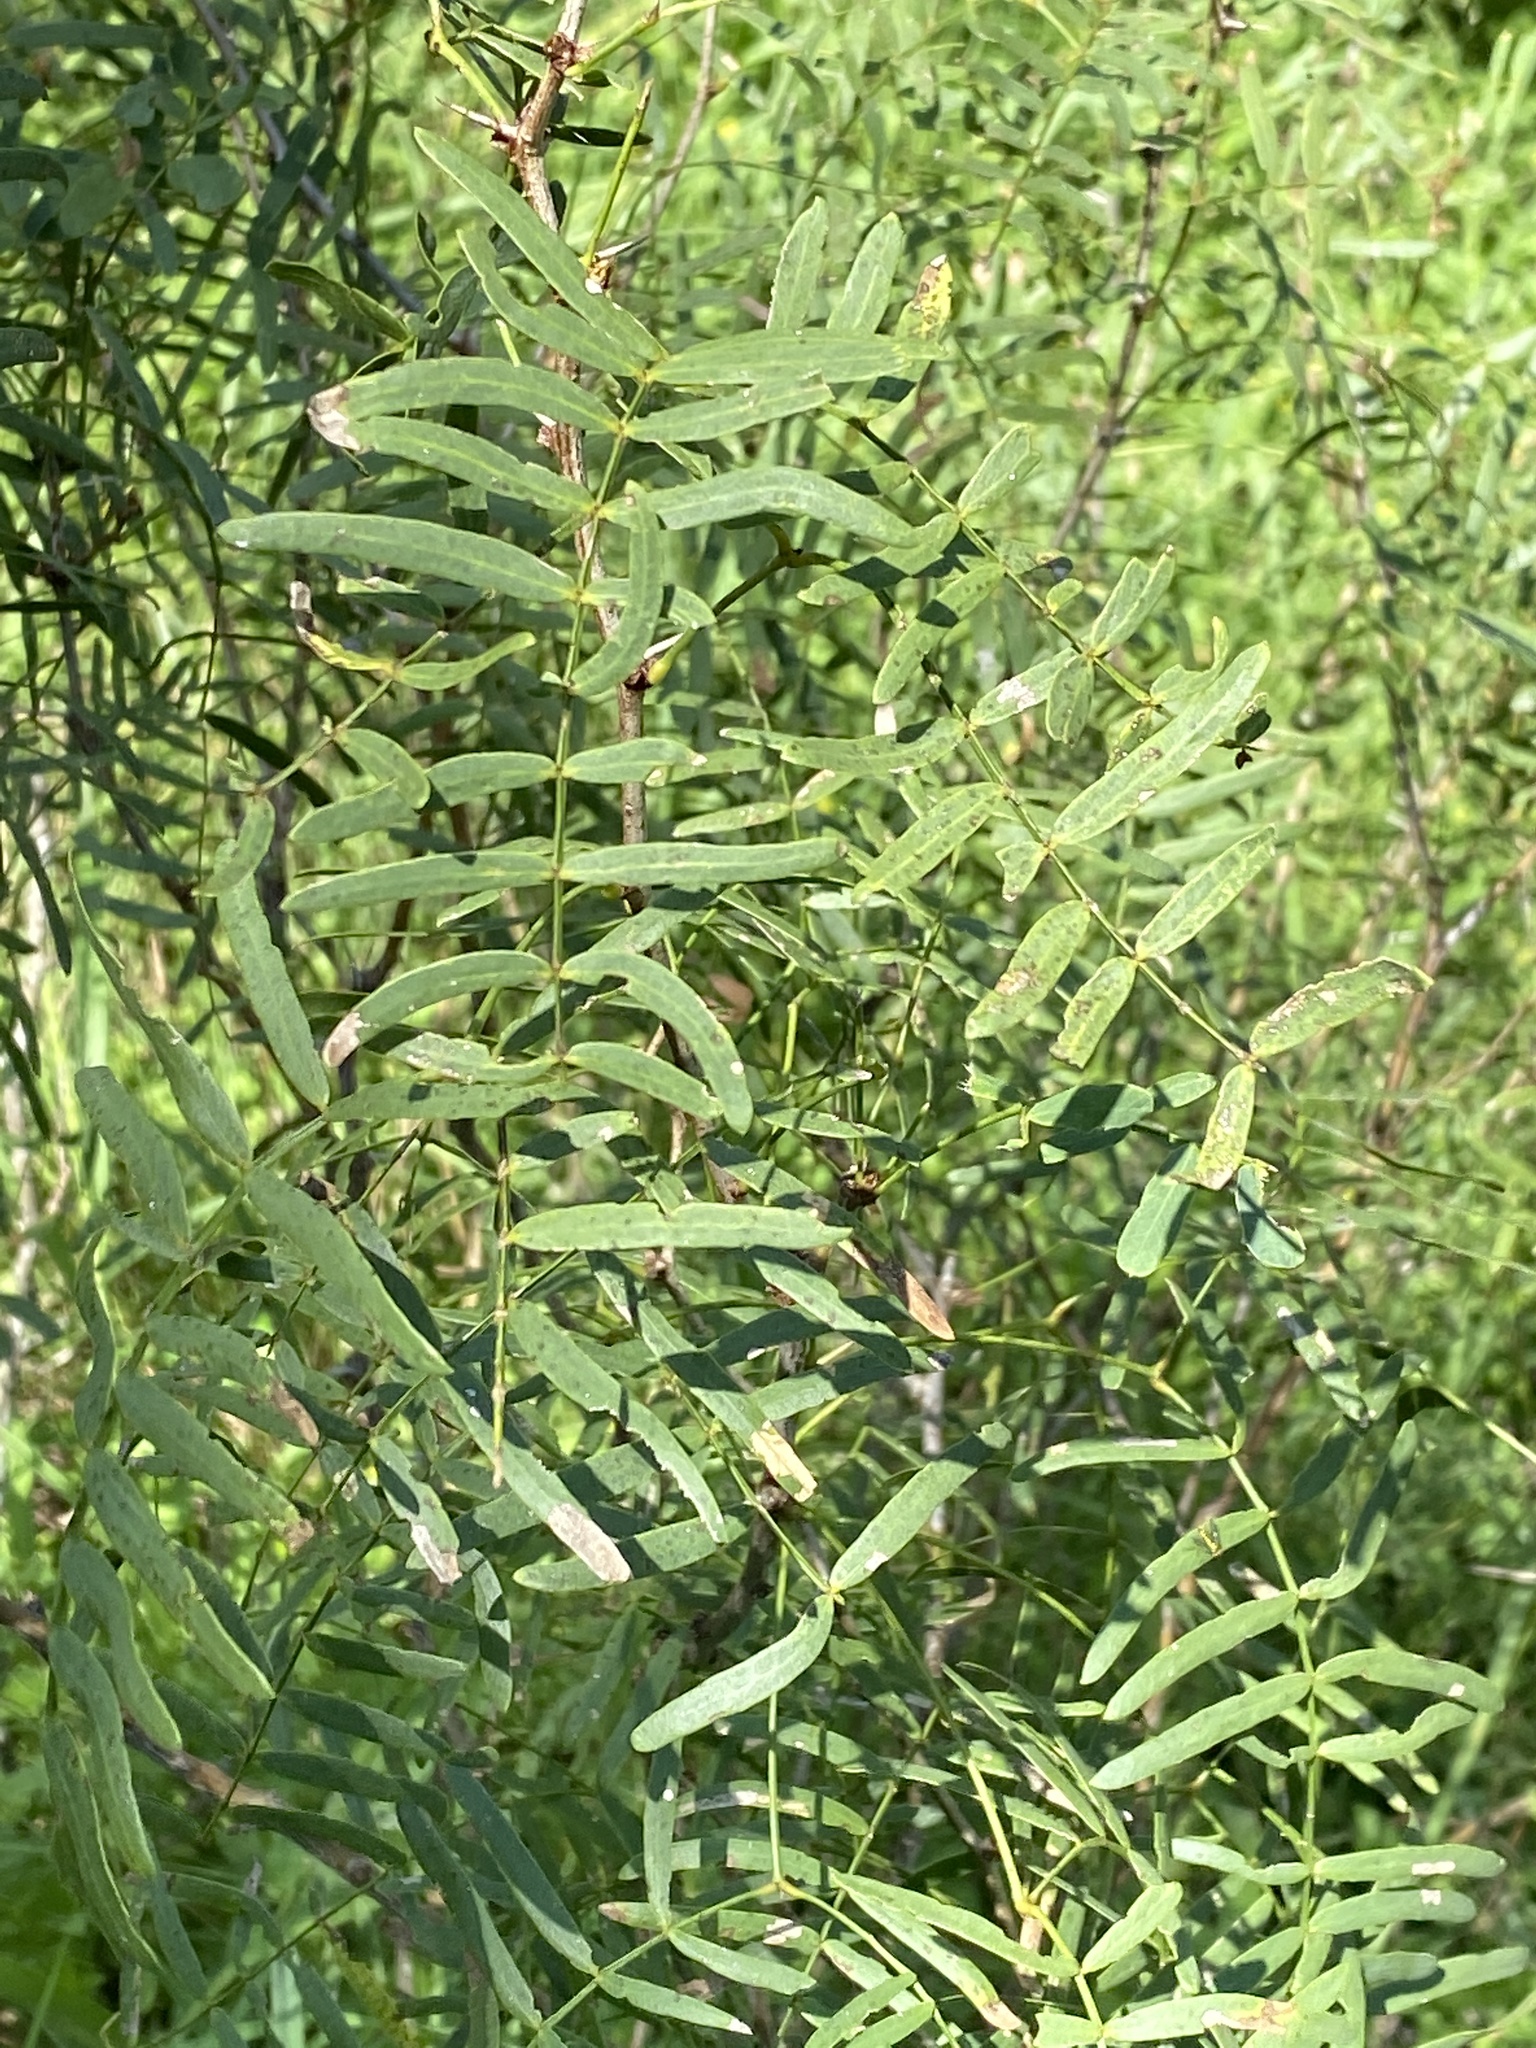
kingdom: Plantae
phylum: Tracheophyta
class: Magnoliopsida
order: Fabales
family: Fabaceae
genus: Prosopis
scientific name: Prosopis glandulosa
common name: Honey mesquite
